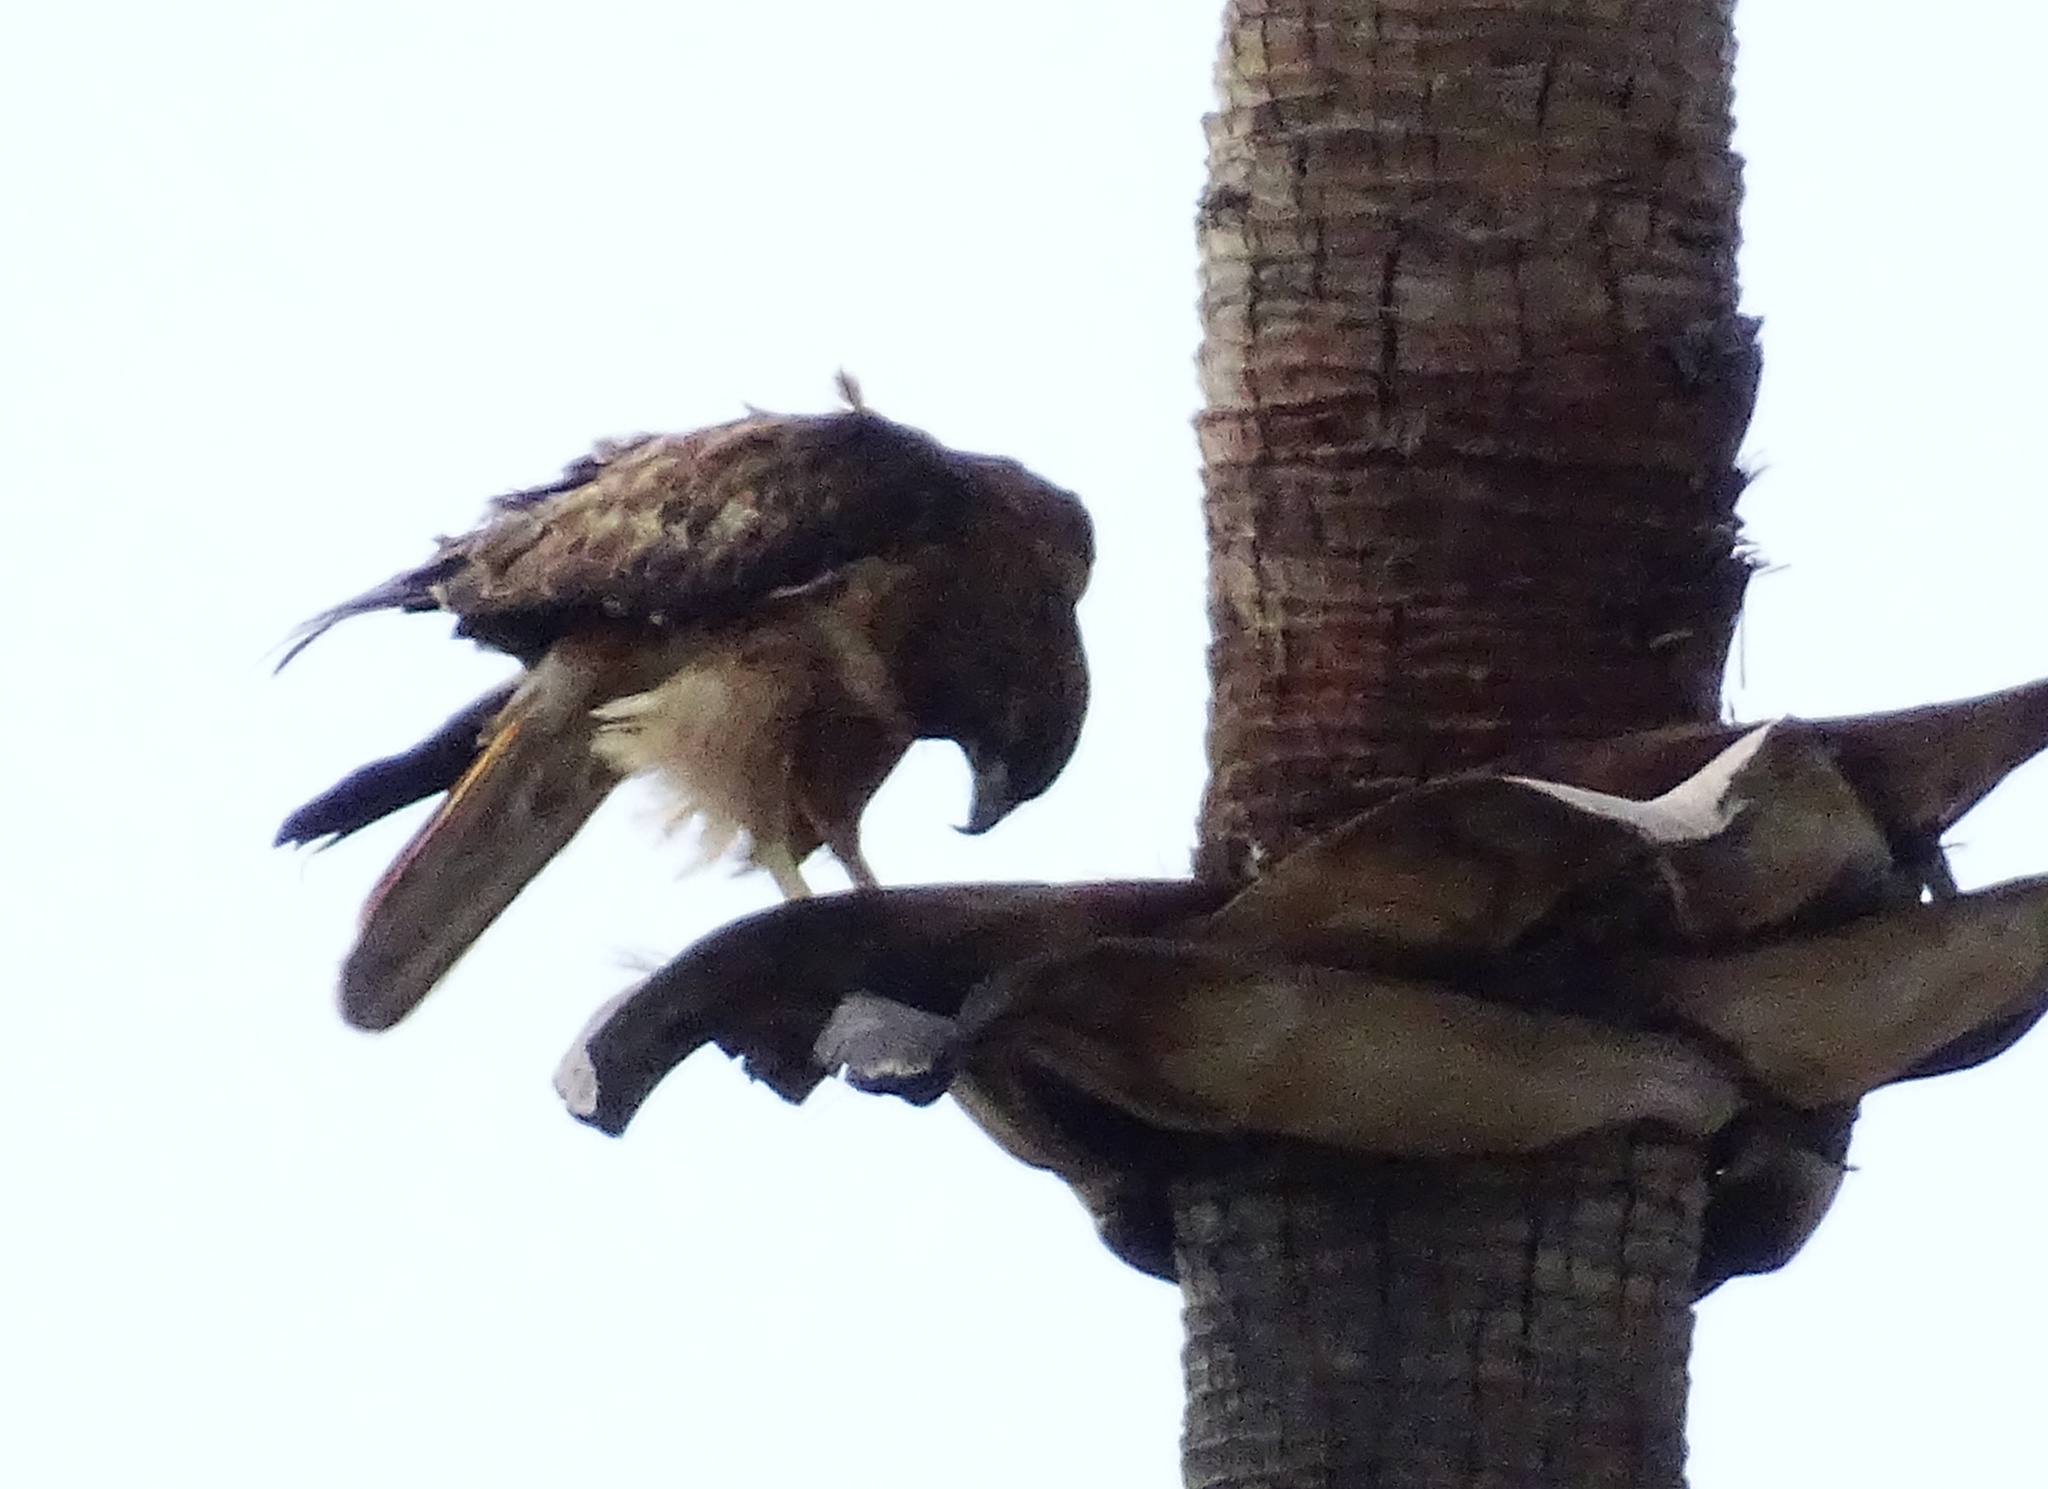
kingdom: Animalia
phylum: Chordata
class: Aves
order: Accipitriformes
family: Accipitridae
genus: Buteo
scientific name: Buteo jamaicensis
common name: Red-tailed hawk
